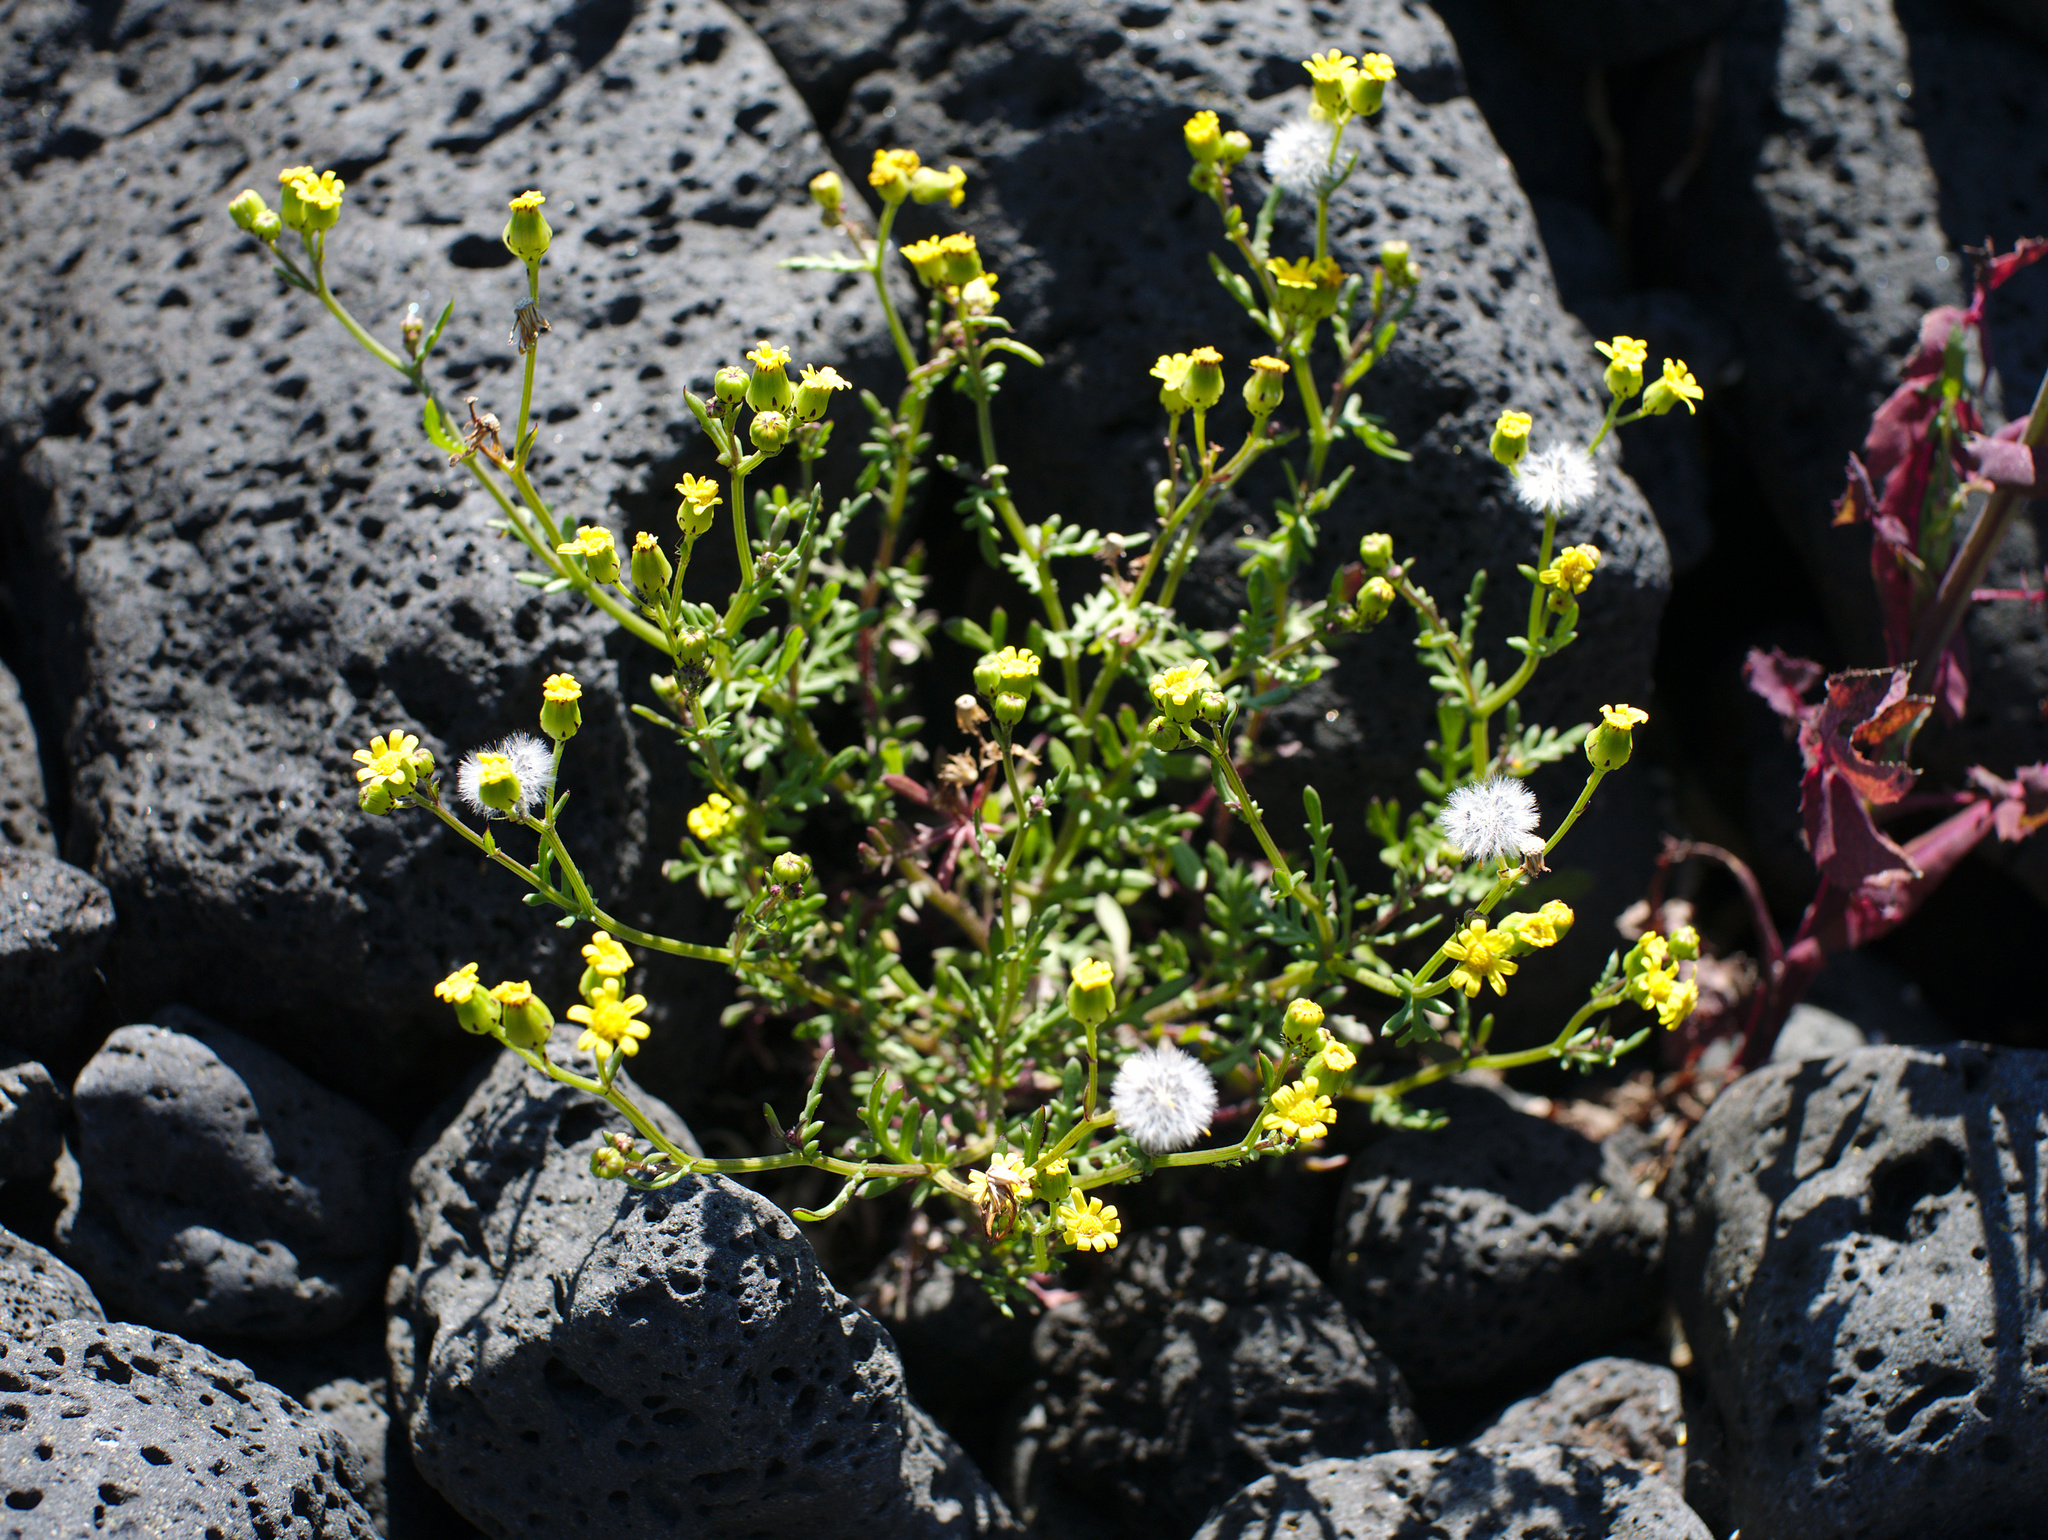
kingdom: Plantae
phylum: Tracheophyta
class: Magnoliopsida
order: Asterales
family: Asteraceae
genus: Senecio
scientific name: Senecio lautus
